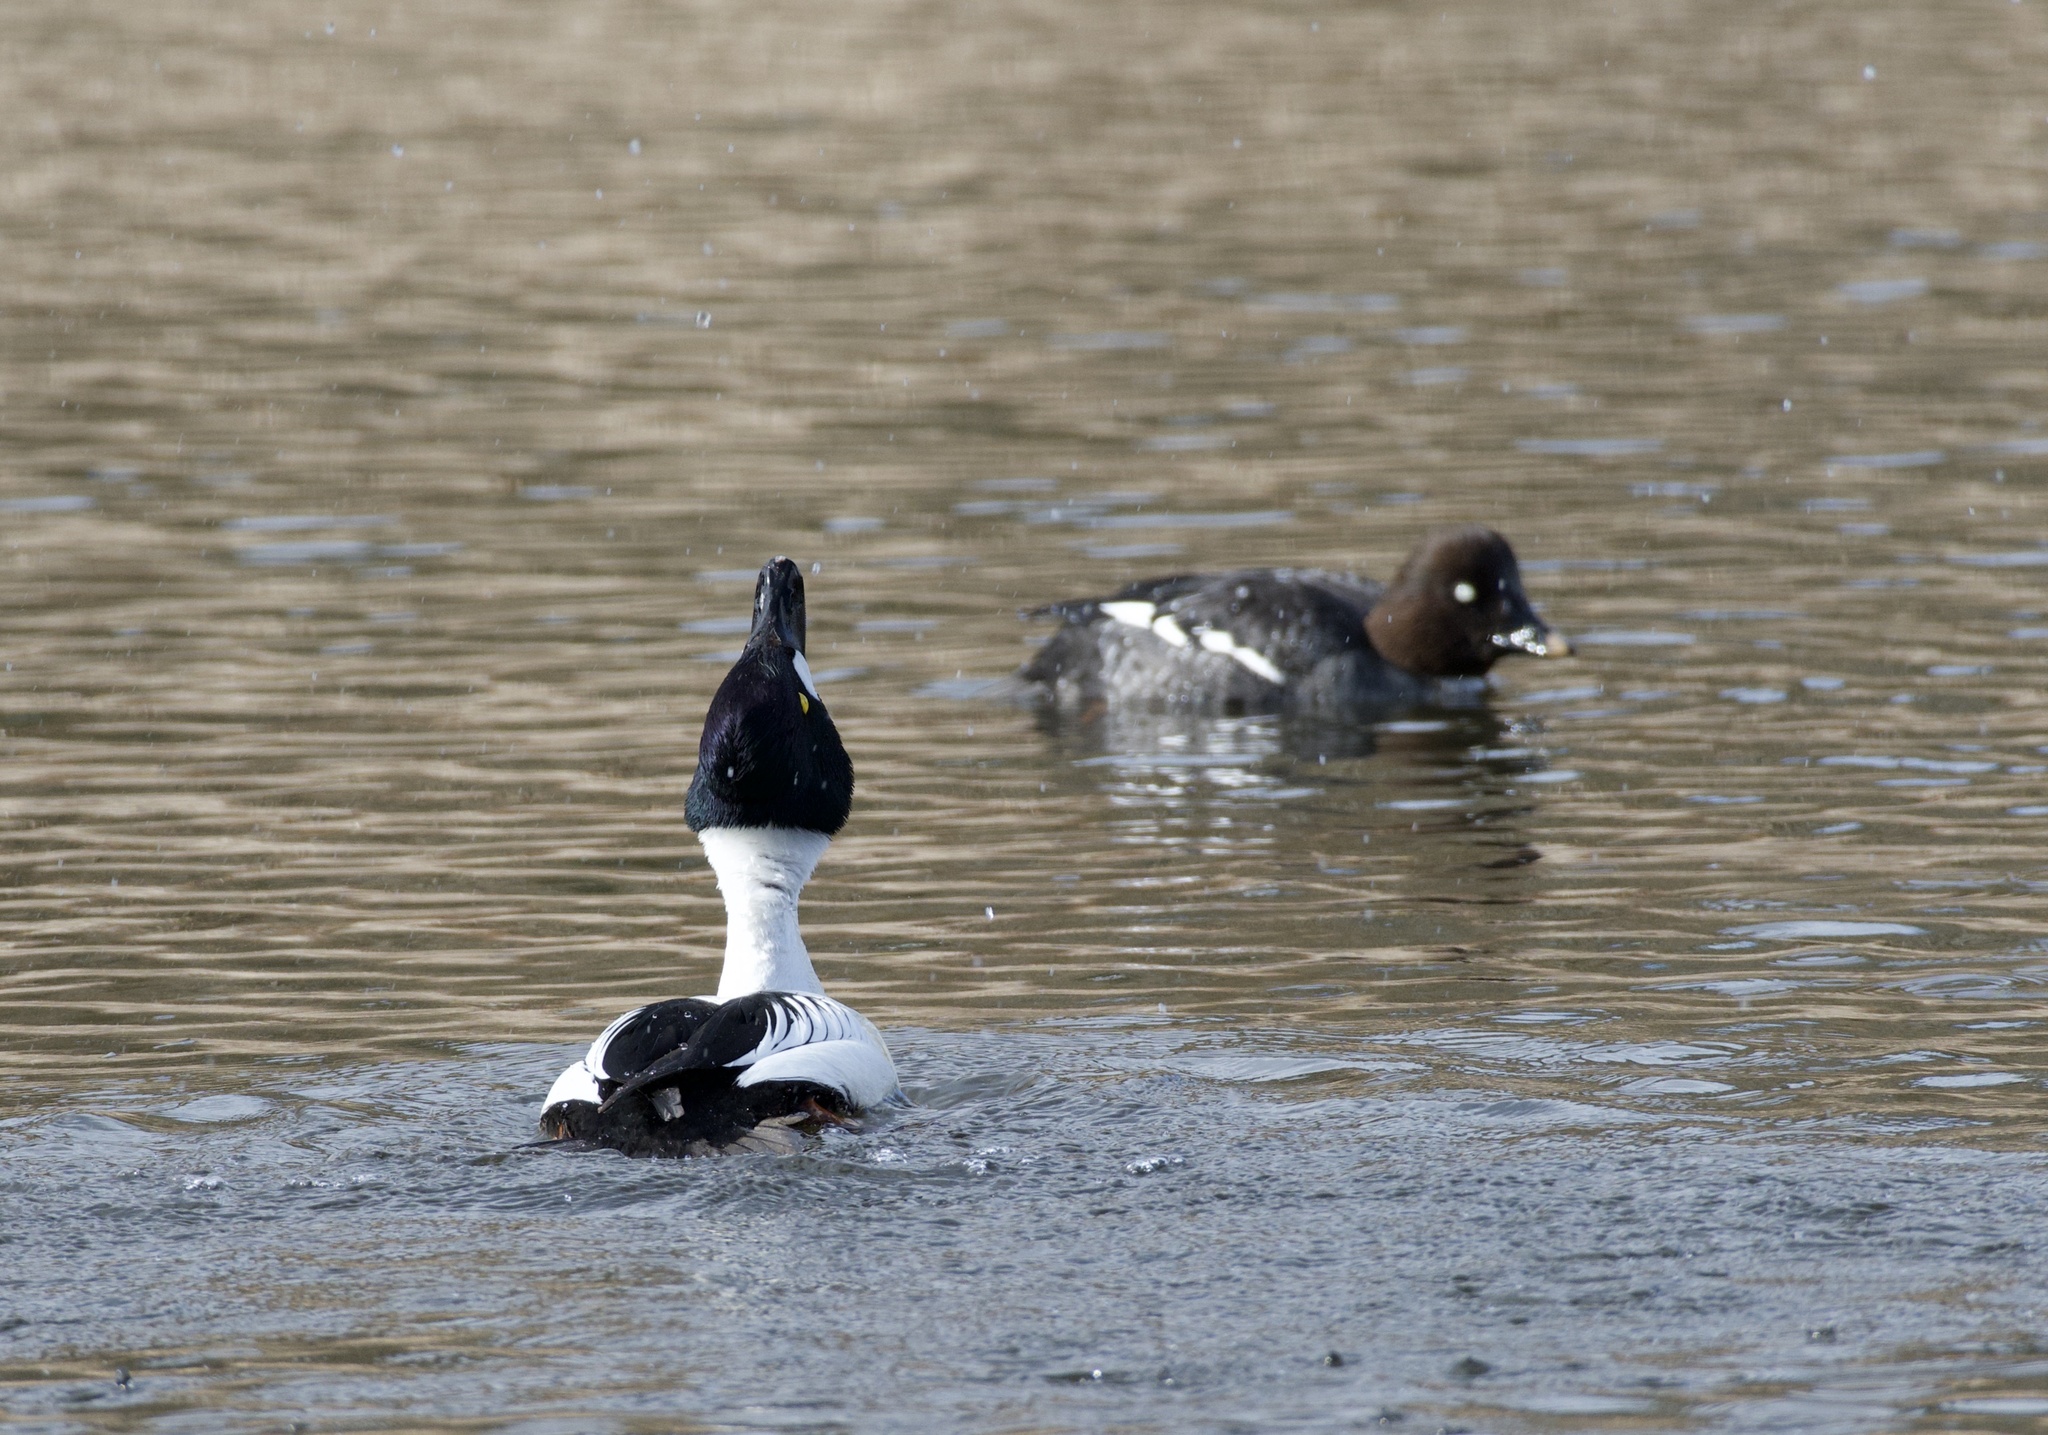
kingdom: Animalia
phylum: Chordata
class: Aves
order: Anseriformes
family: Anatidae
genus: Bucephala
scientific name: Bucephala clangula
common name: Common goldeneye
